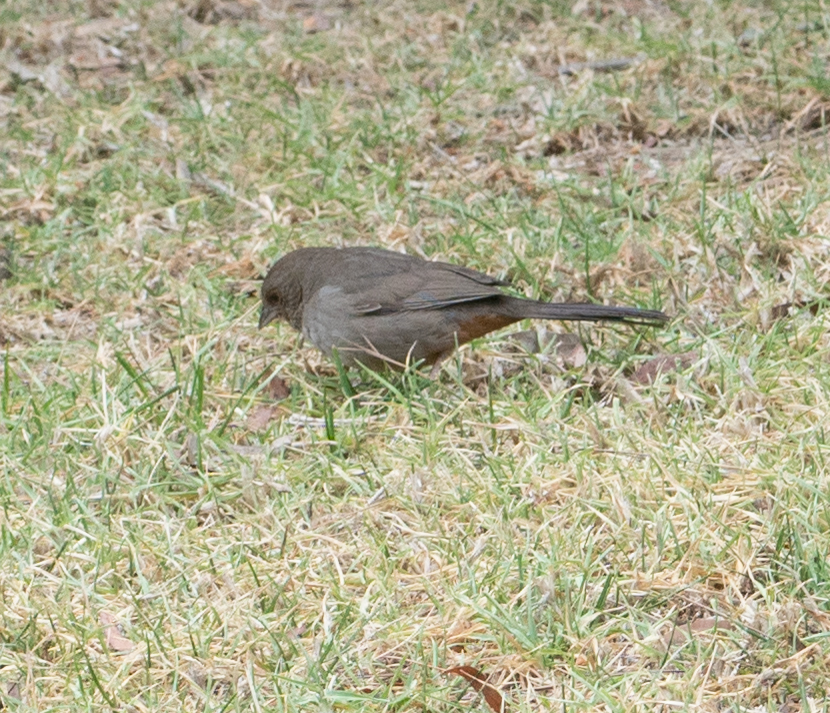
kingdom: Animalia
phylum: Chordata
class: Aves
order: Passeriformes
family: Passerellidae
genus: Melozone
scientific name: Melozone crissalis
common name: California towhee
